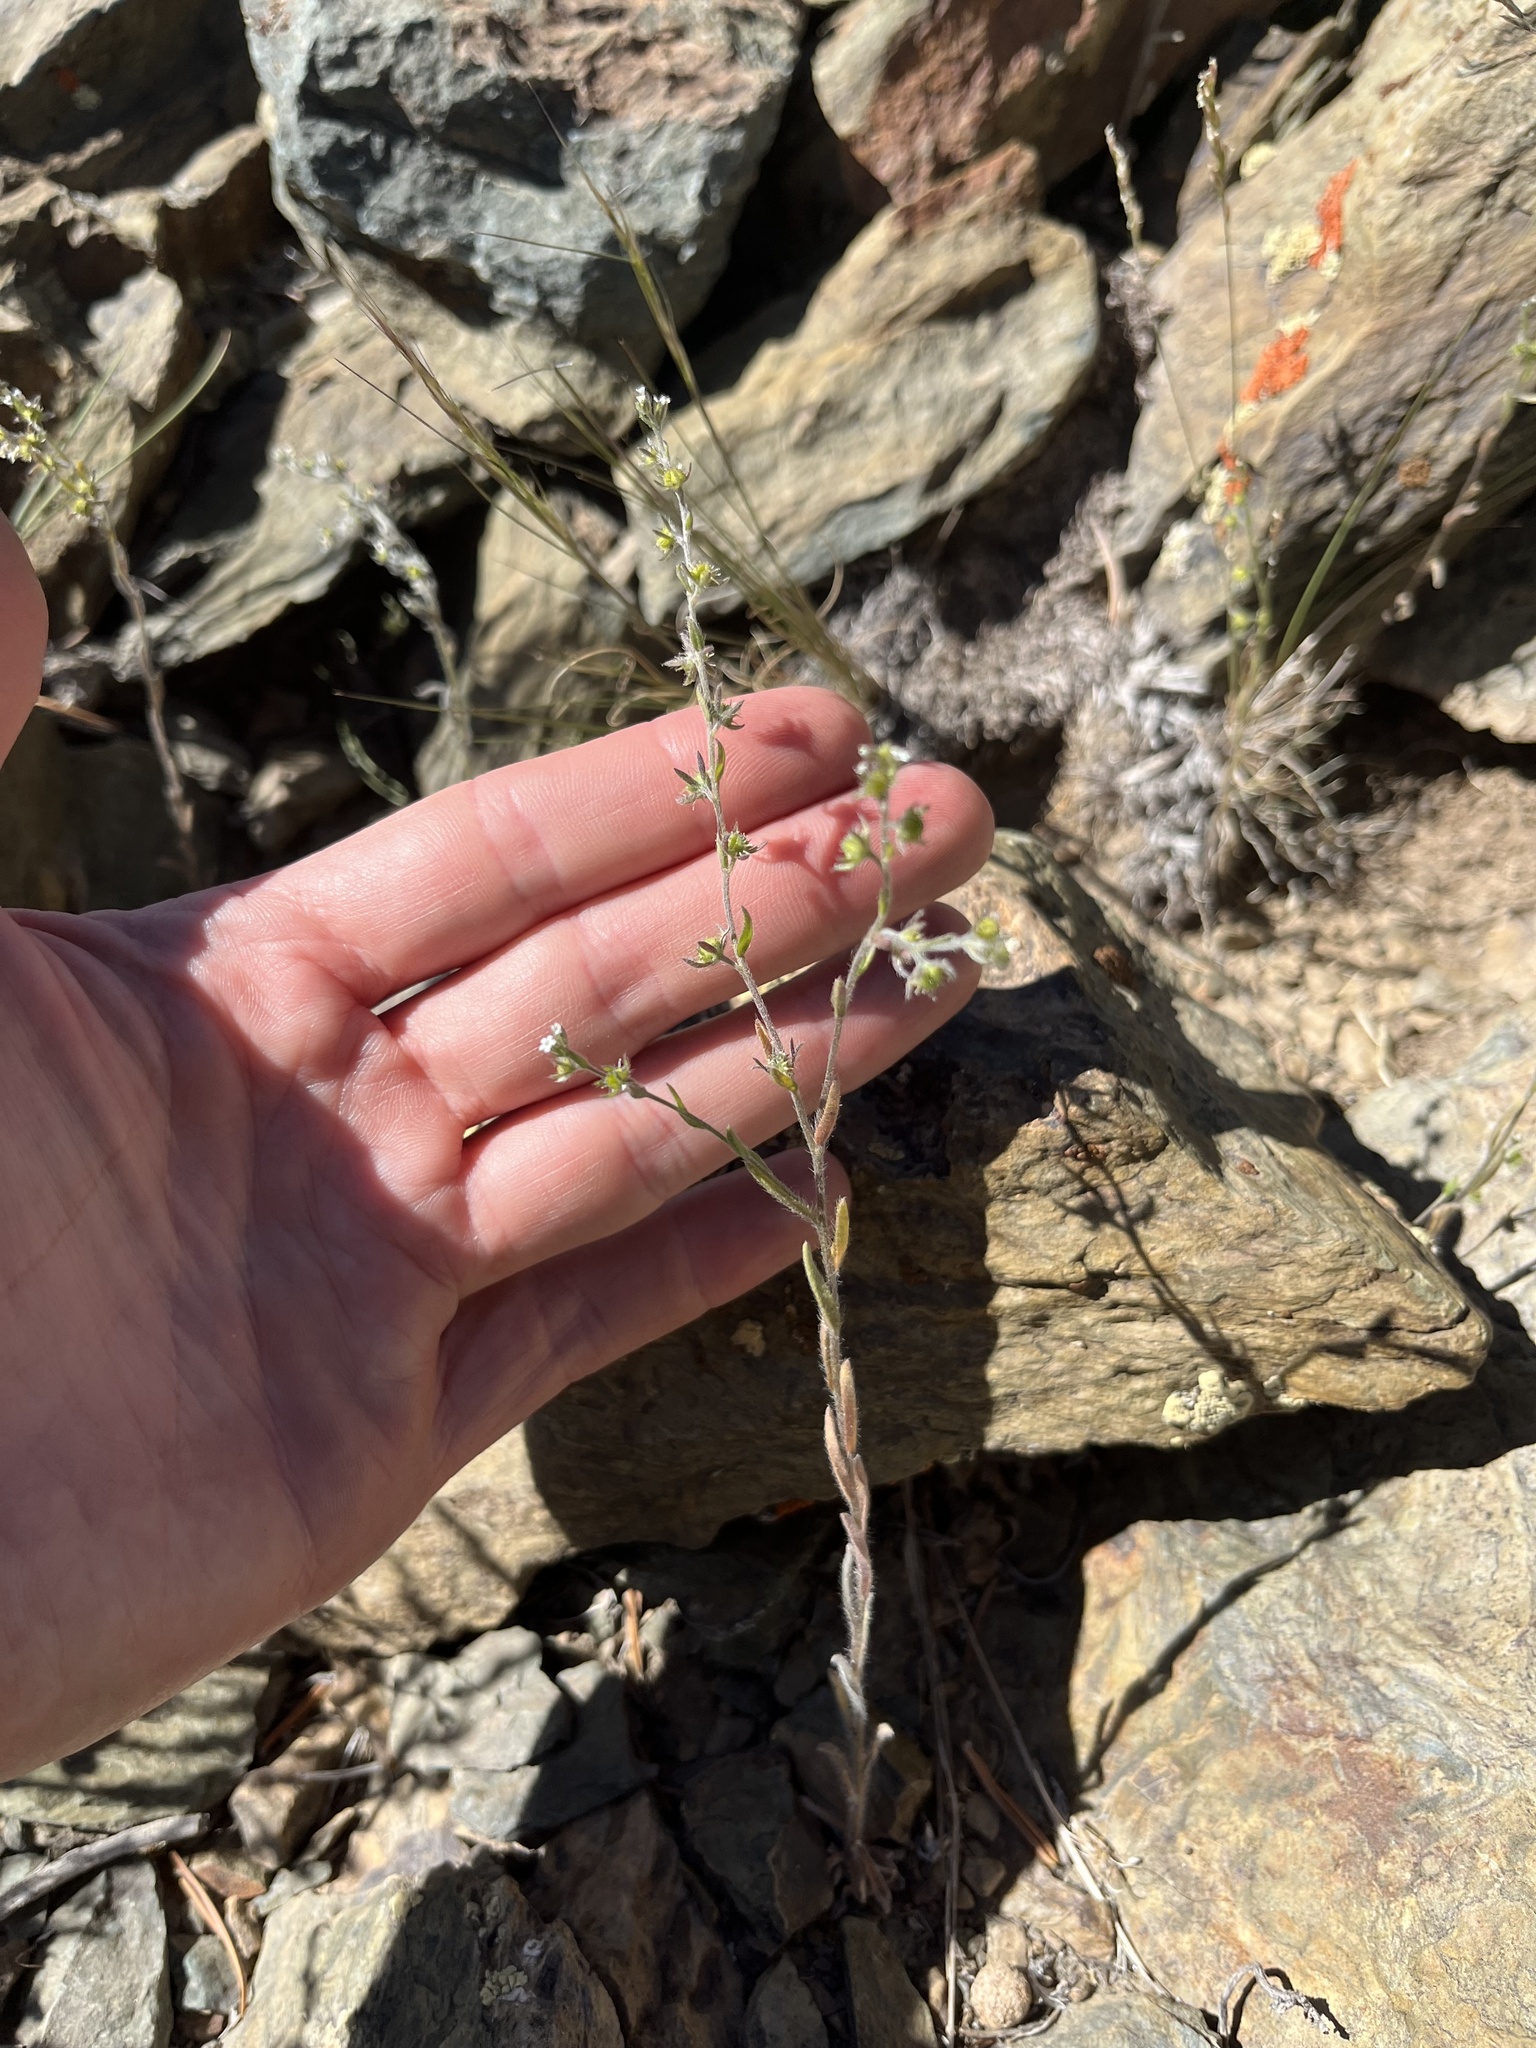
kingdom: Plantae
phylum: Tracheophyta
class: Magnoliopsida
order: Boraginales
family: Boraginaceae
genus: Lappula
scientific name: Lappula occidentalis
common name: Western stickseed
